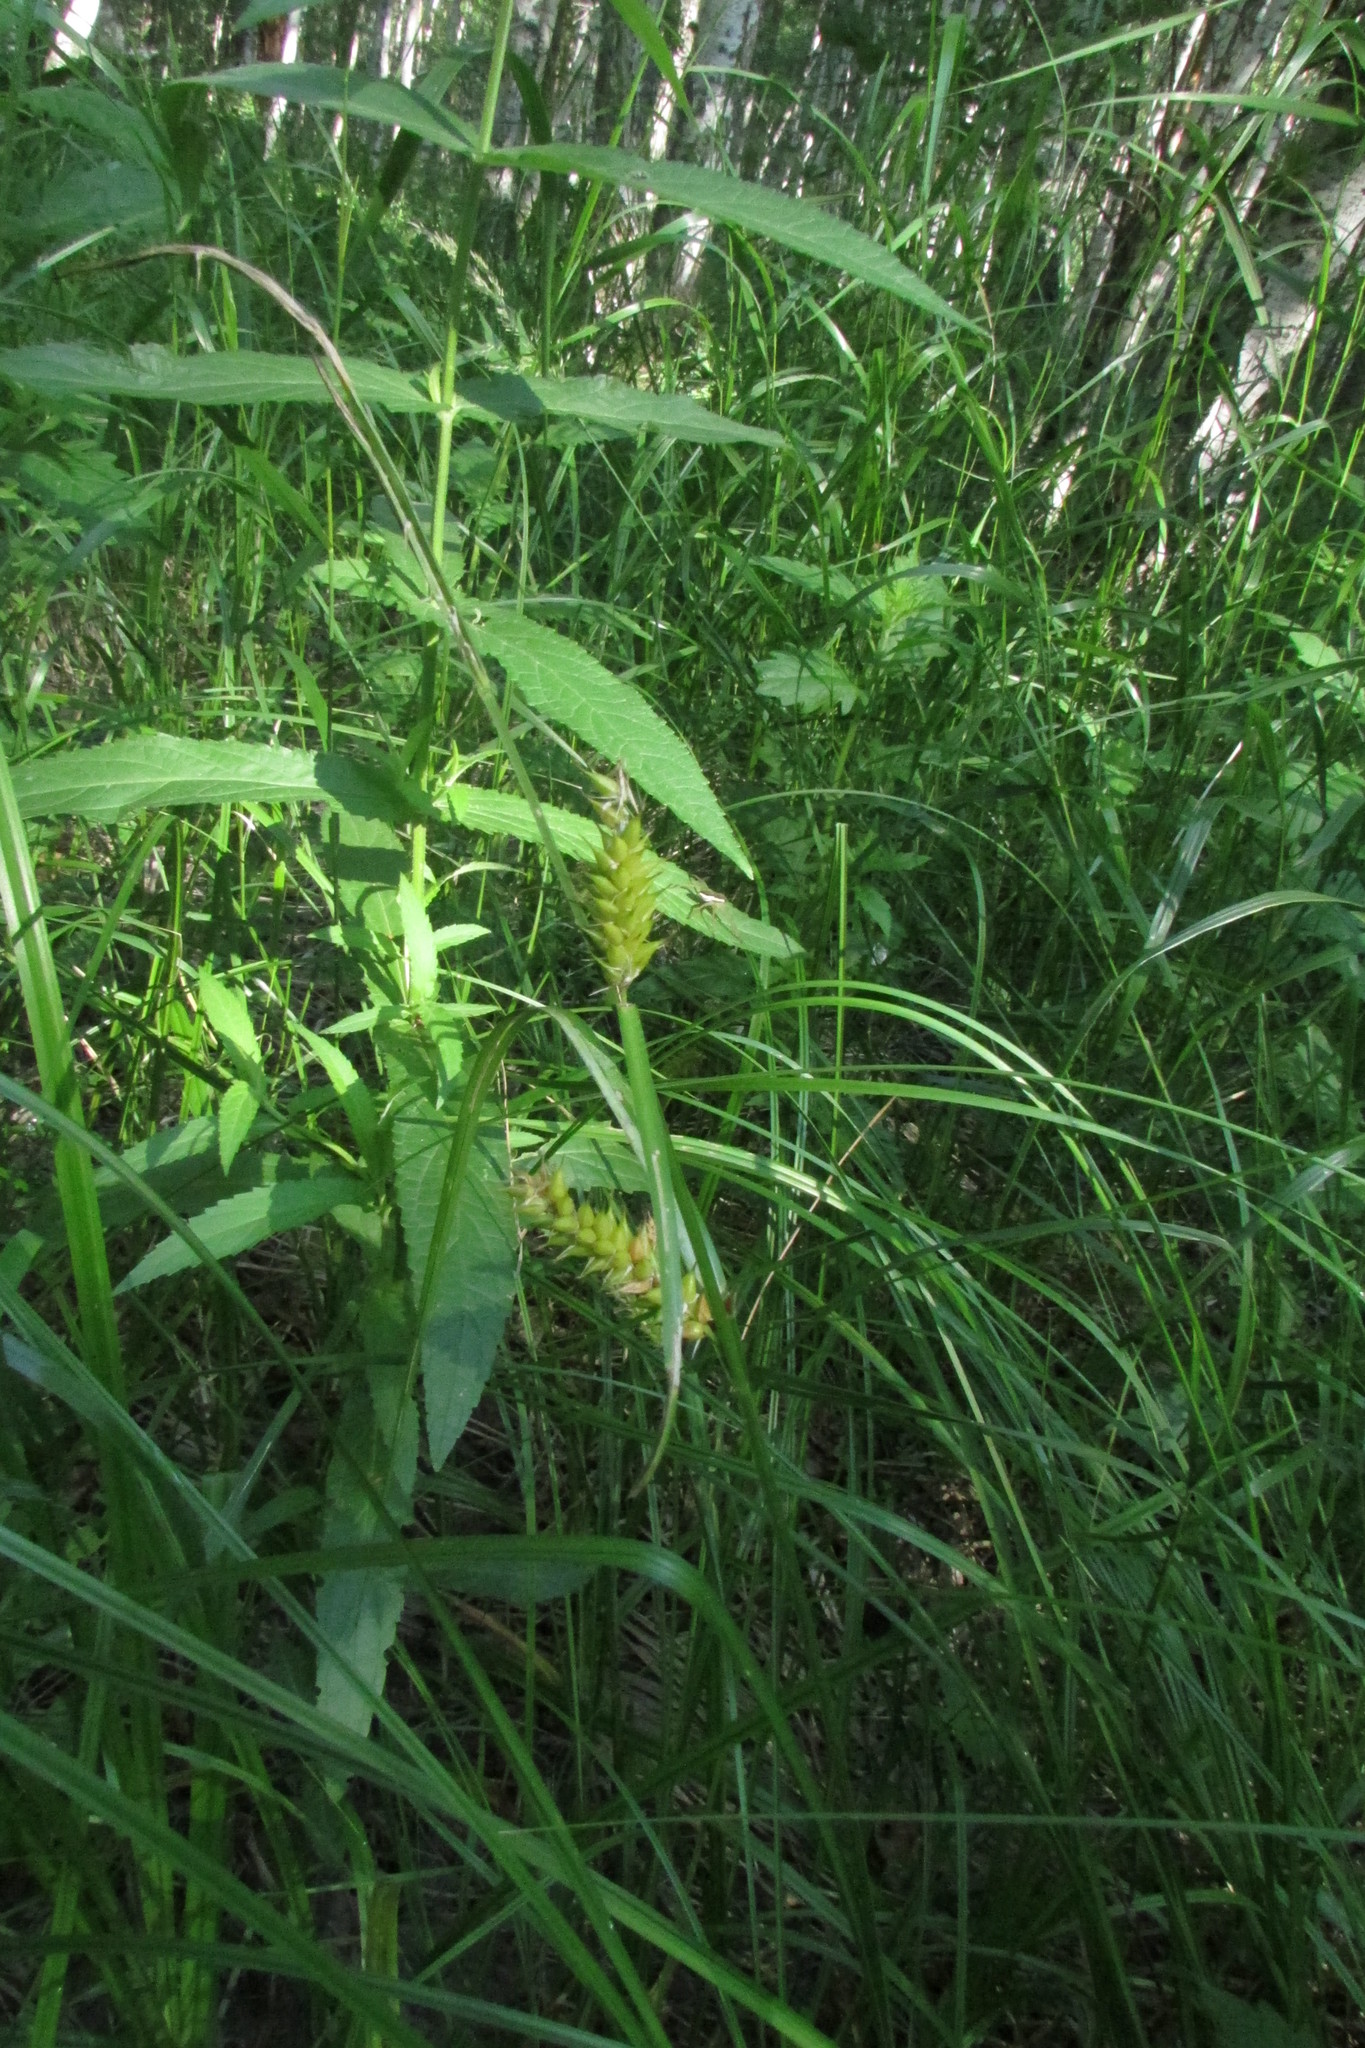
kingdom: Plantae
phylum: Tracheophyta
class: Liliopsida
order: Poales
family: Cyperaceae
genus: Carex
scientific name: Carex vesicaria
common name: Bladder-sedge
